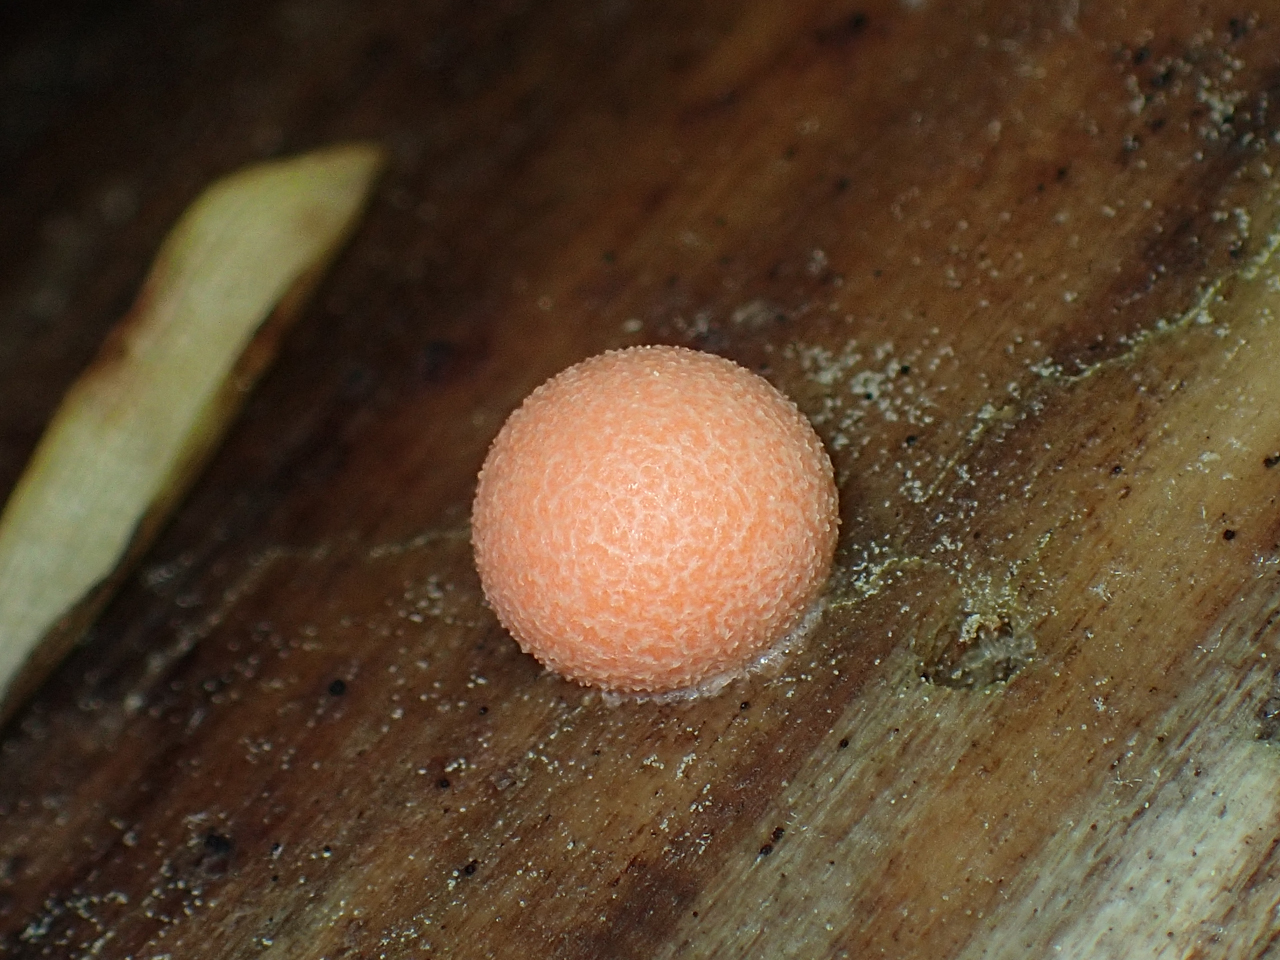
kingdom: Protozoa
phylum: Mycetozoa
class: Myxomycetes
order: Cribrariales
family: Tubiferaceae
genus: Lycogala
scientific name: Lycogala epidendrum
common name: Wolf's milk
